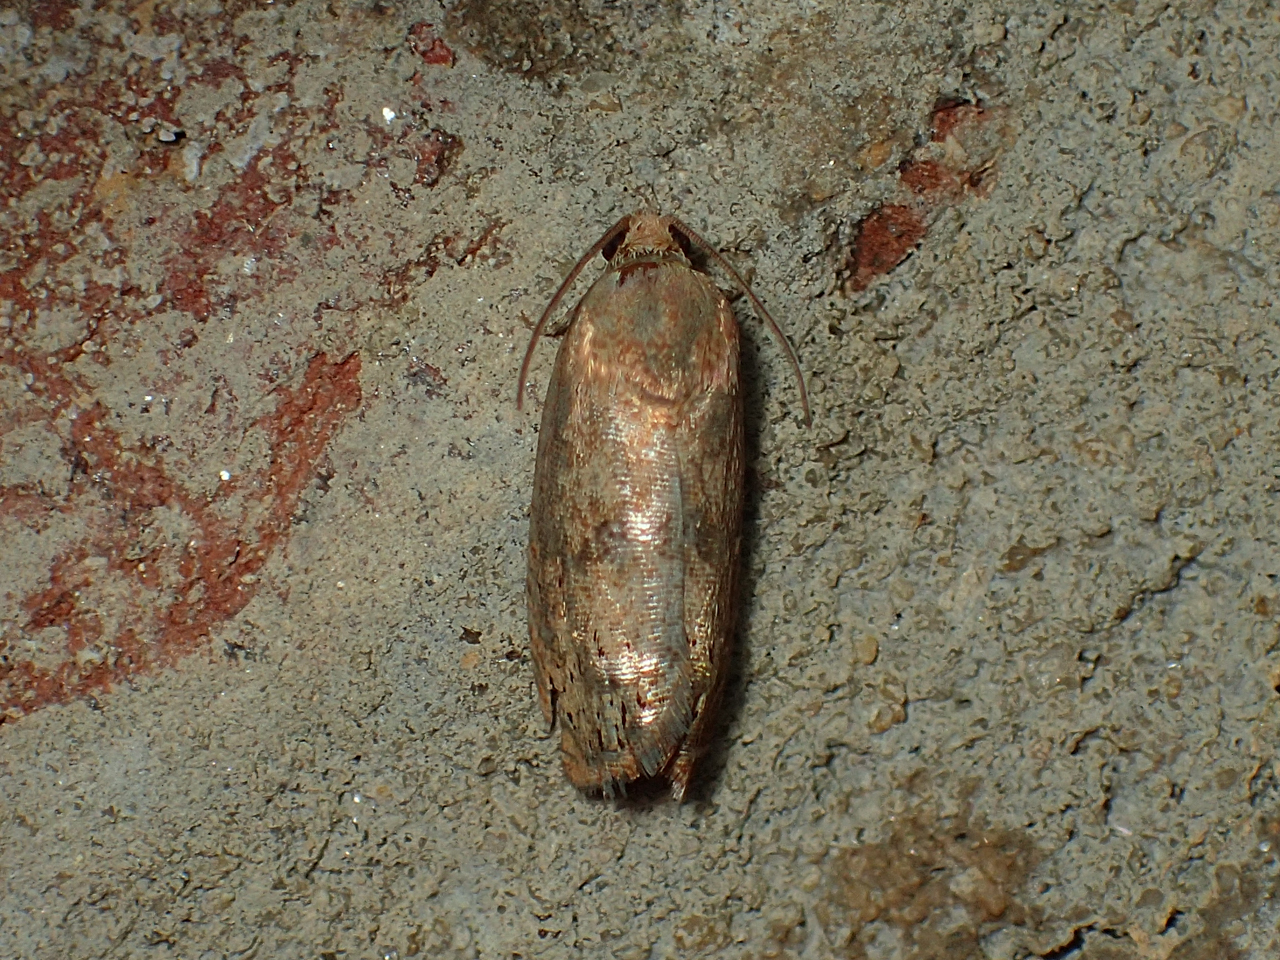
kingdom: Animalia
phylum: Arthropoda
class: Insecta
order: Lepidoptera
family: Tortricidae
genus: Cydia
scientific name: Cydia latiferreana
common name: Filbertworm moth
